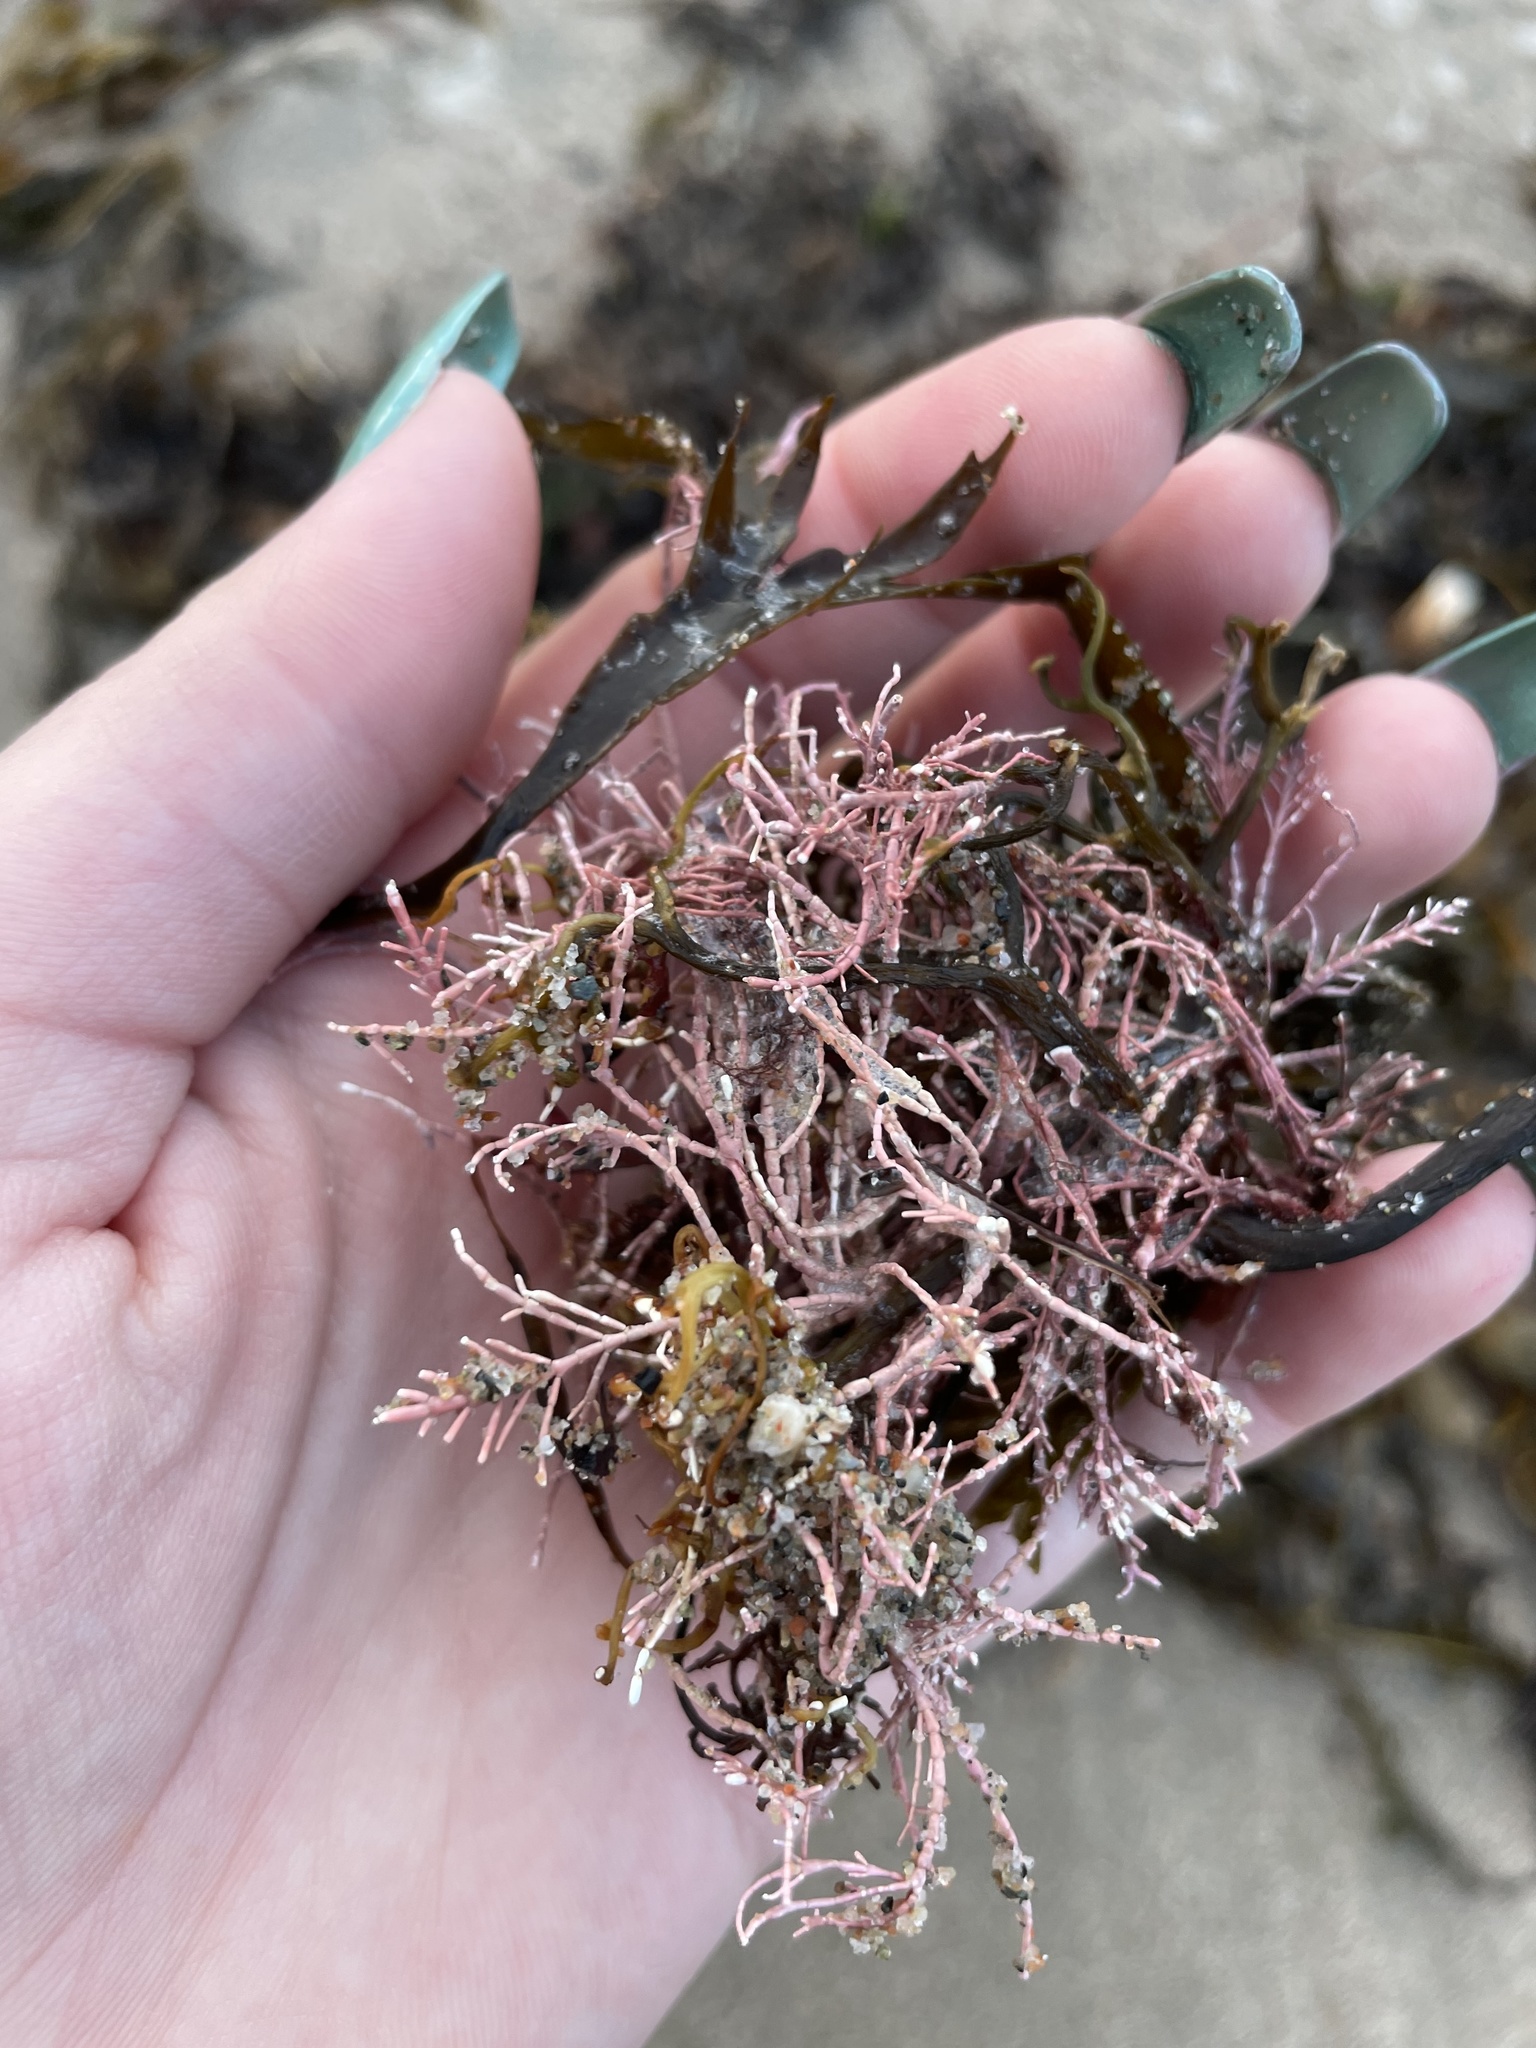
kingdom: Plantae
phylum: Rhodophyta
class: Florideophyceae
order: Corallinales
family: Corallinaceae
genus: Corallina
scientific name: Corallina officinalis
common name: Coral weed
